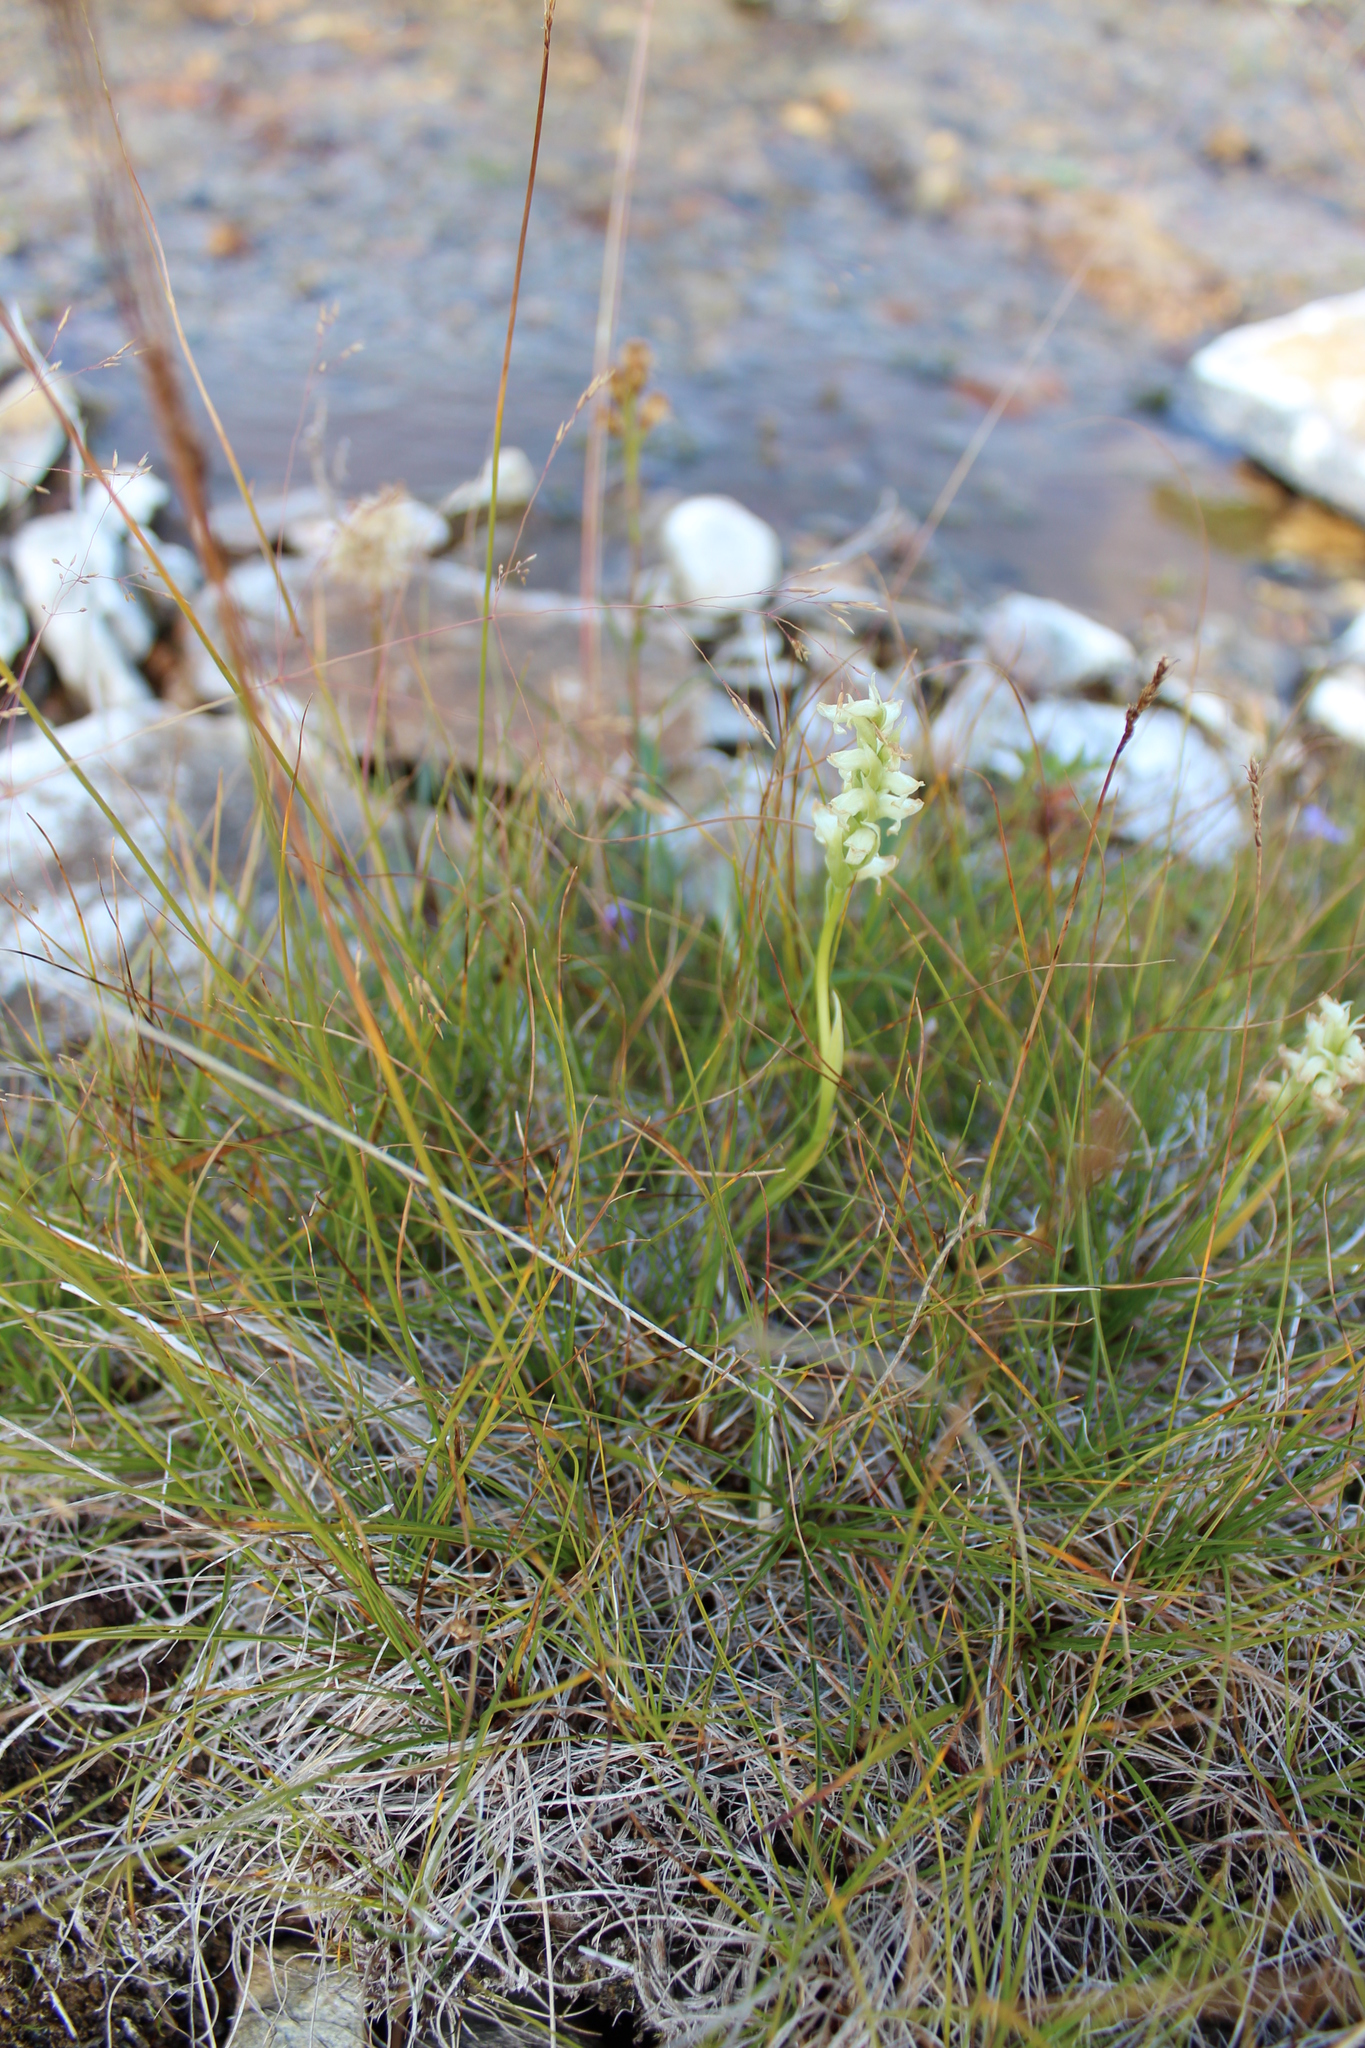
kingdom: Plantae
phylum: Tracheophyta
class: Liliopsida
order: Asparagales
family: Orchidaceae
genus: Spiranthes
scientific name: Spiranthes romanzoffiana
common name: Irish lady's-tresses
